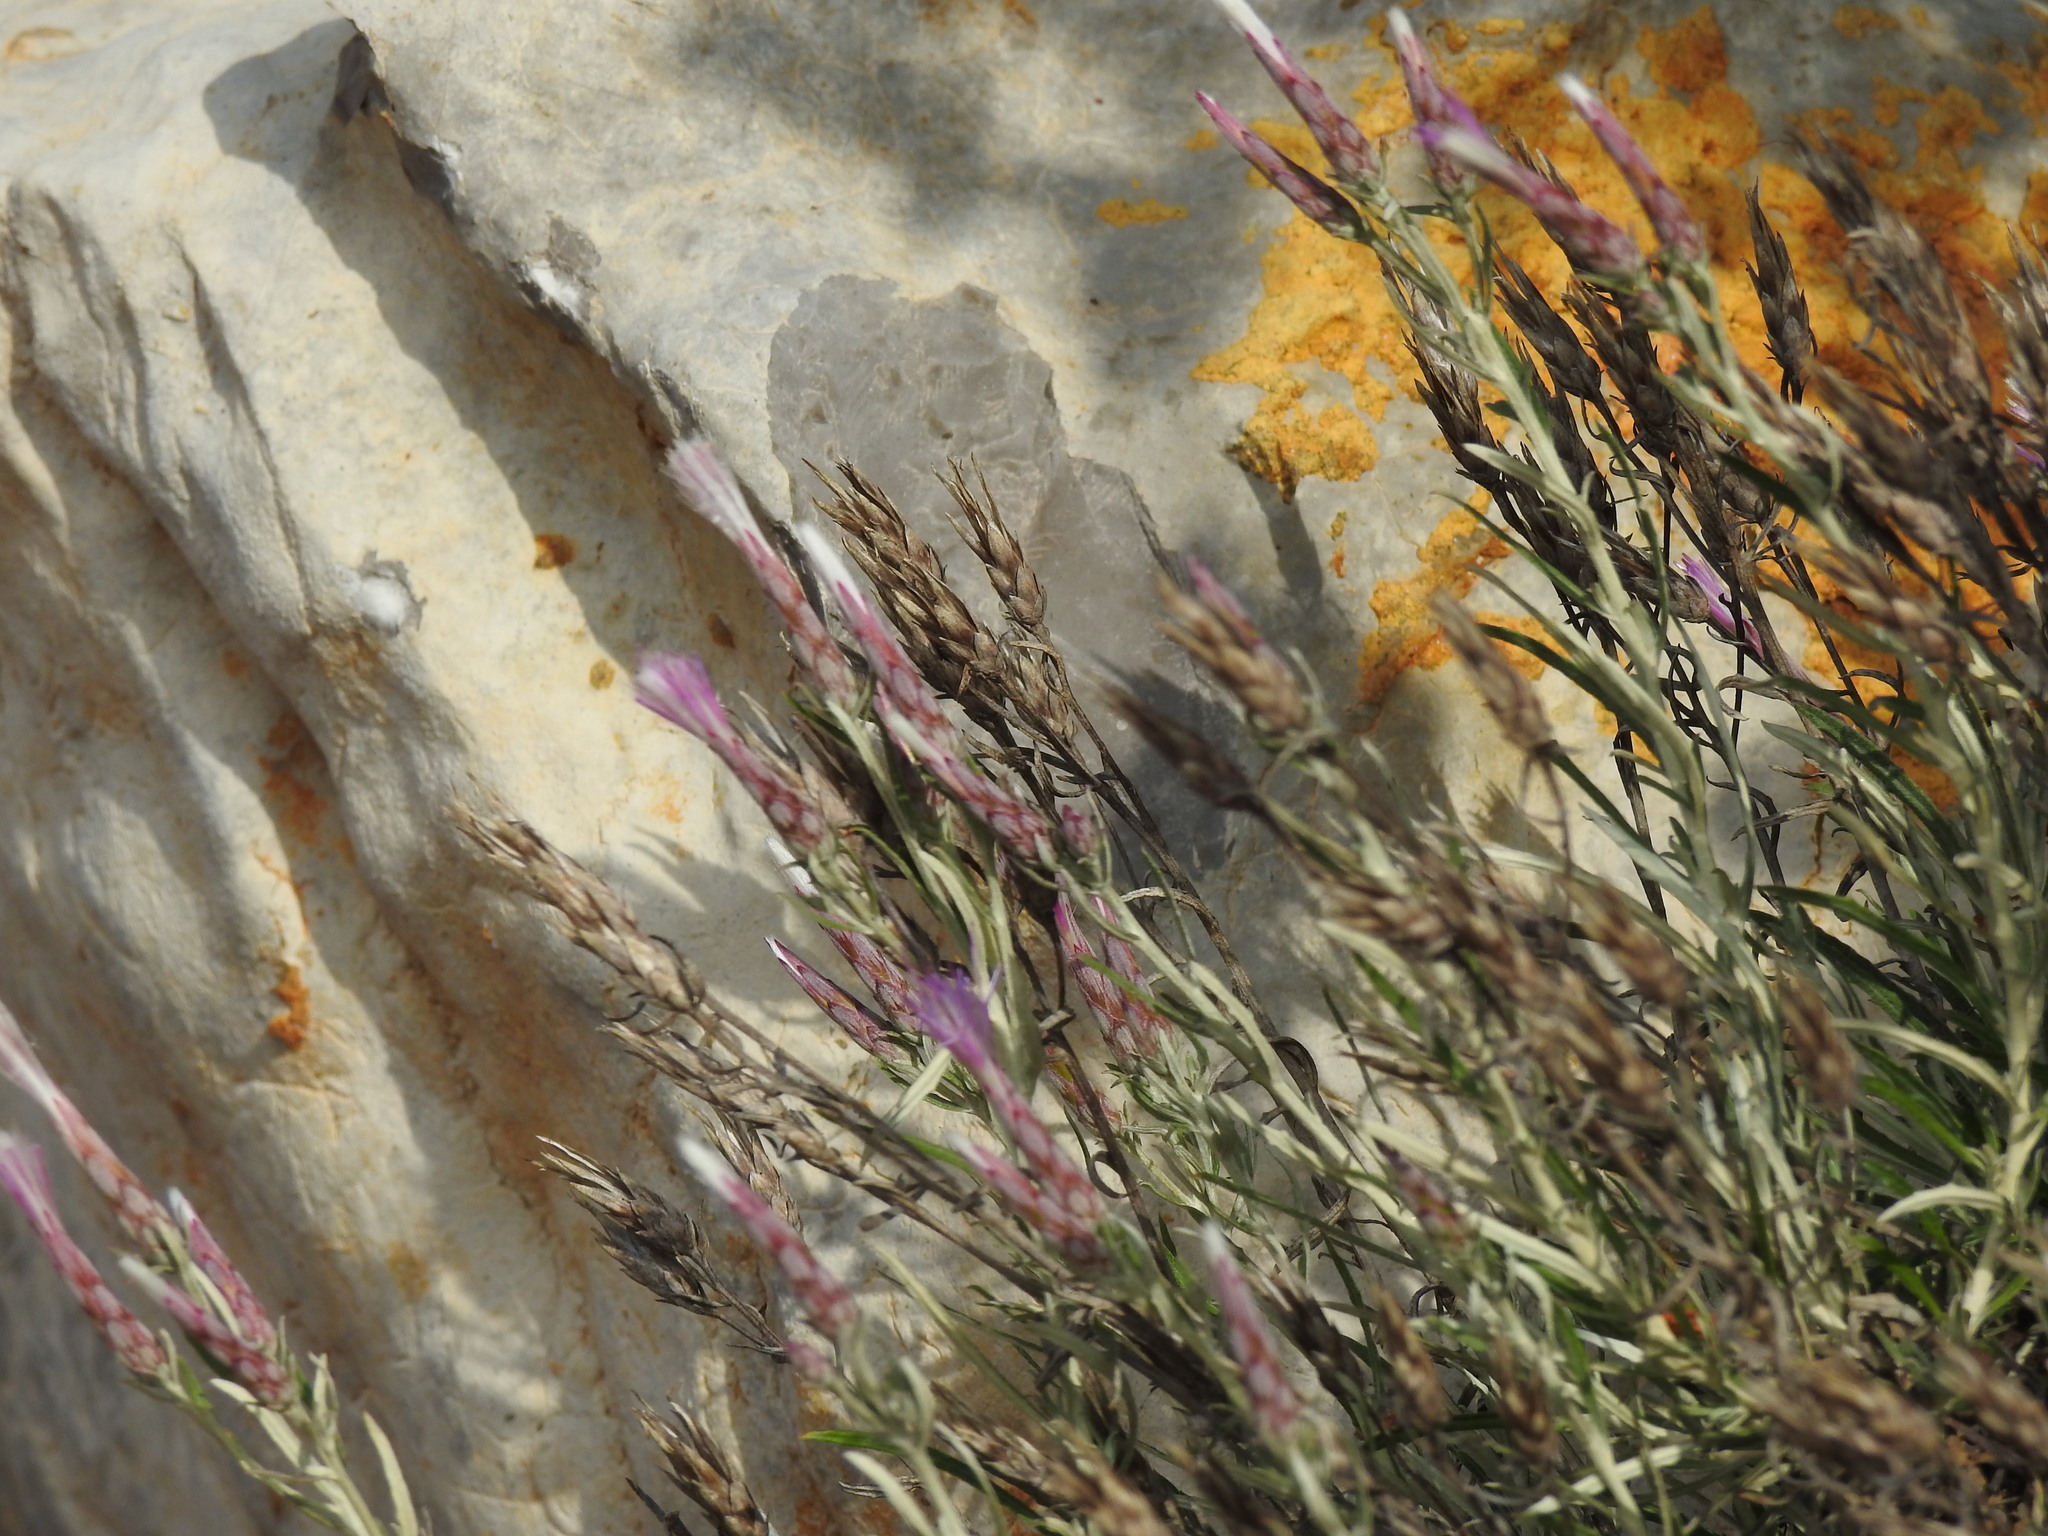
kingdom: Plantae
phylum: Tracheophyta
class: Magnoliopsida
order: Asterales
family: Asteraceae
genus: Staehelina
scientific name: Staehelina dubia
